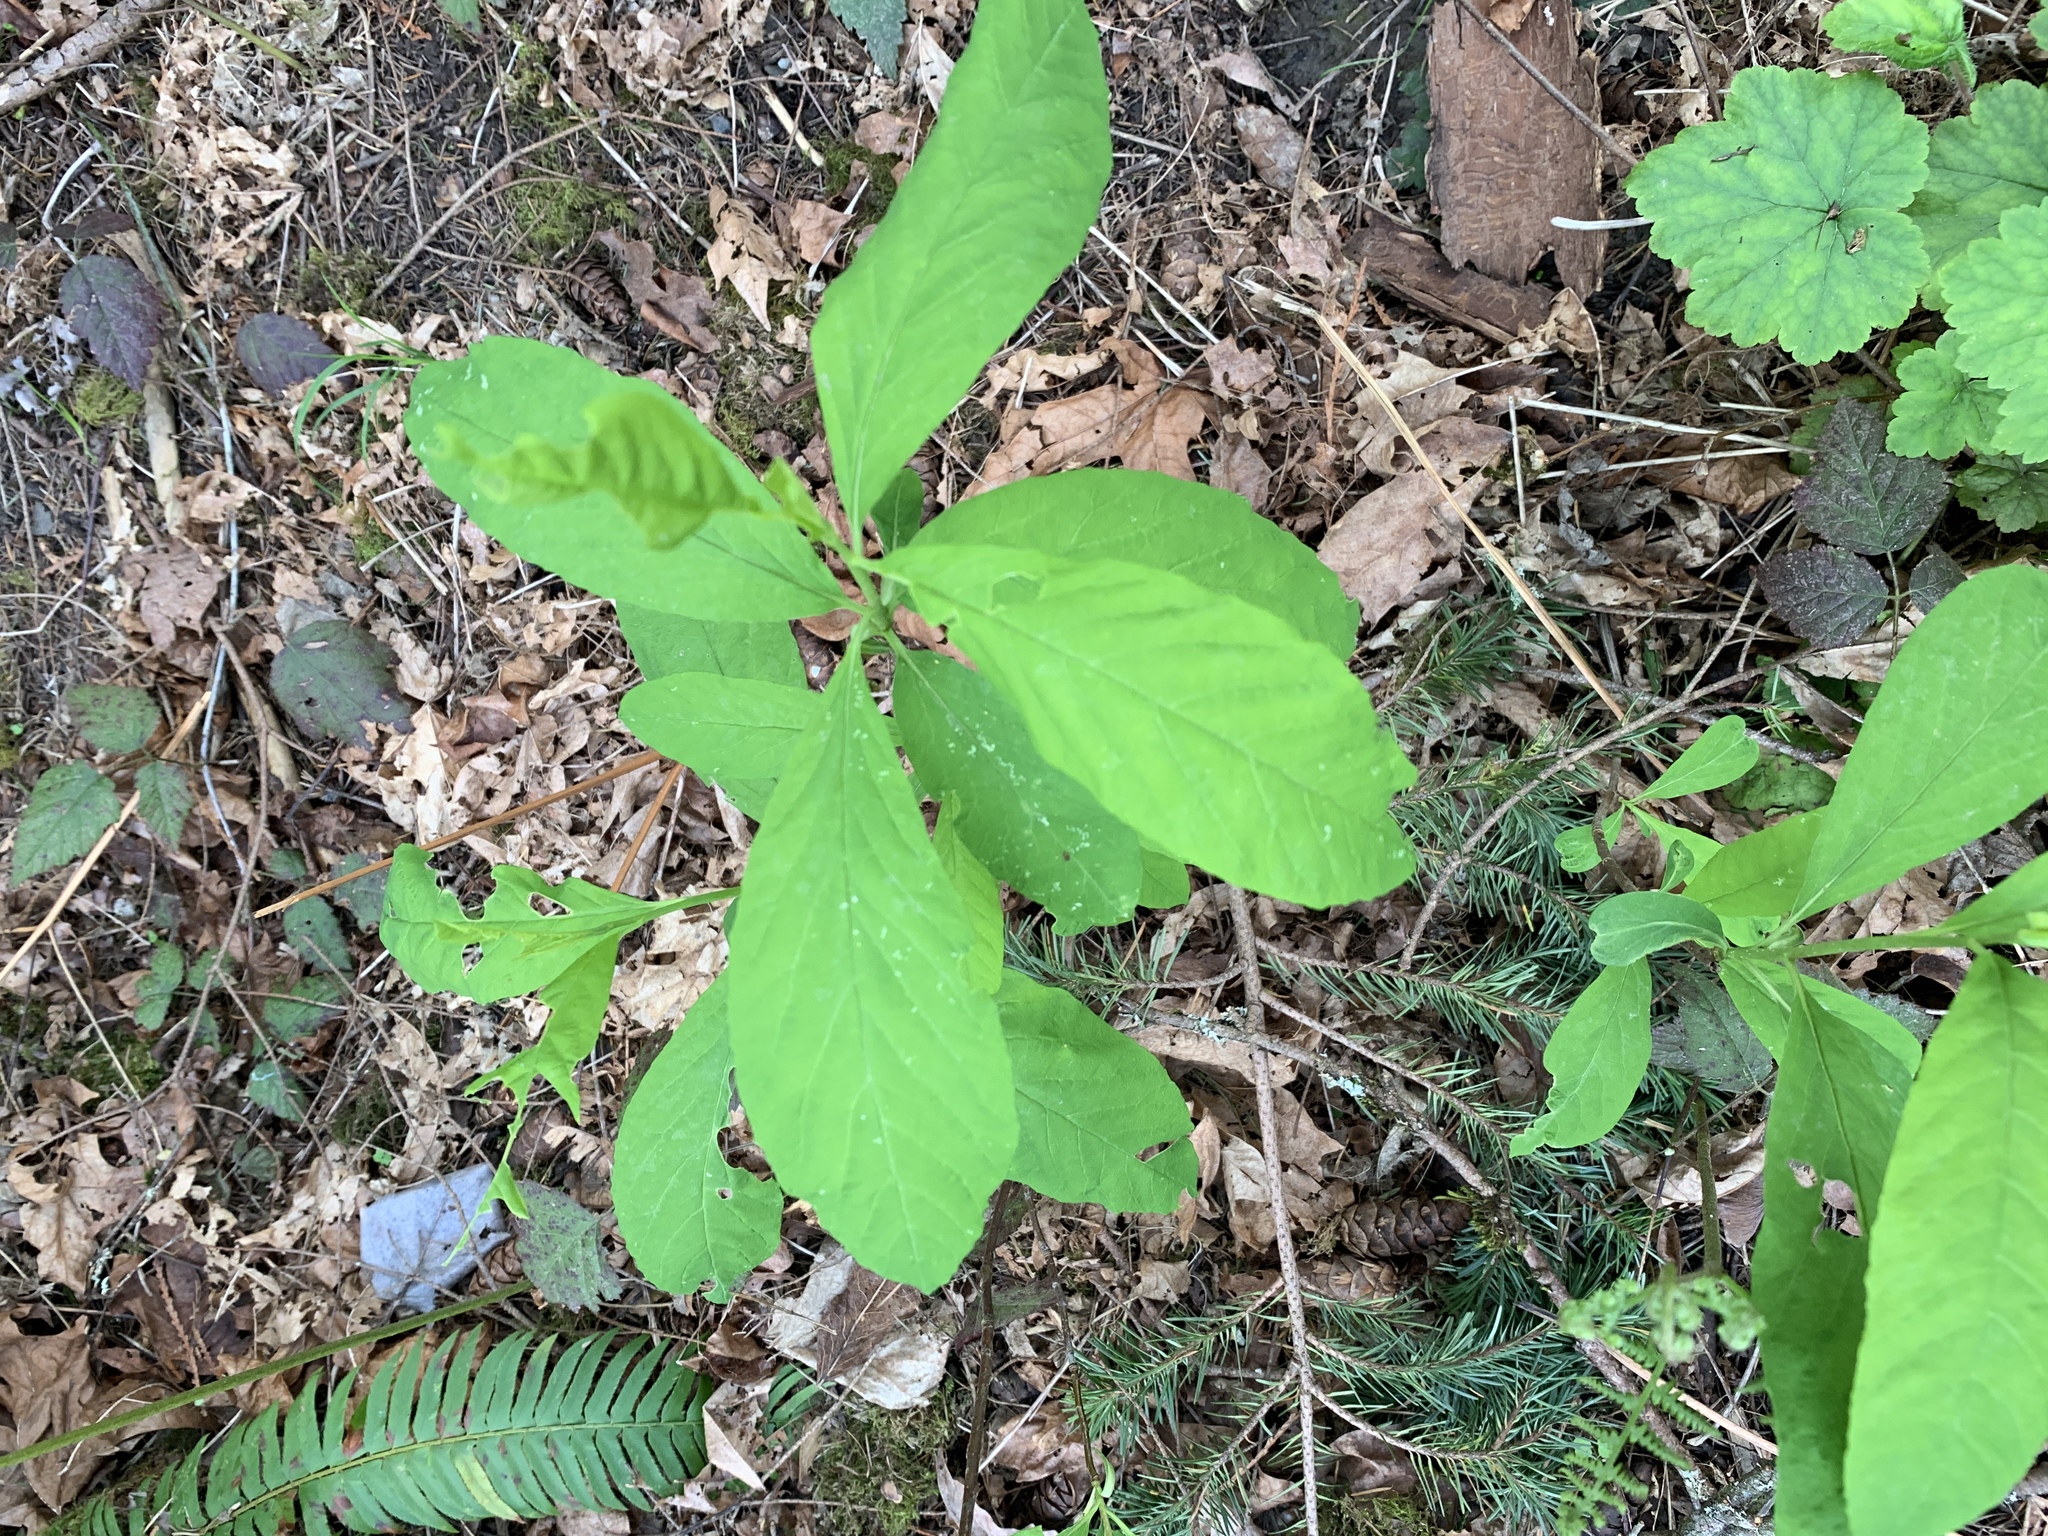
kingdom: Plantae
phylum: Tracheophyta
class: Magnoliopsida
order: Rosales
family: Rosaceae
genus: Oemleria
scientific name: Oemleria cerasiformis
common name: Osoberry
